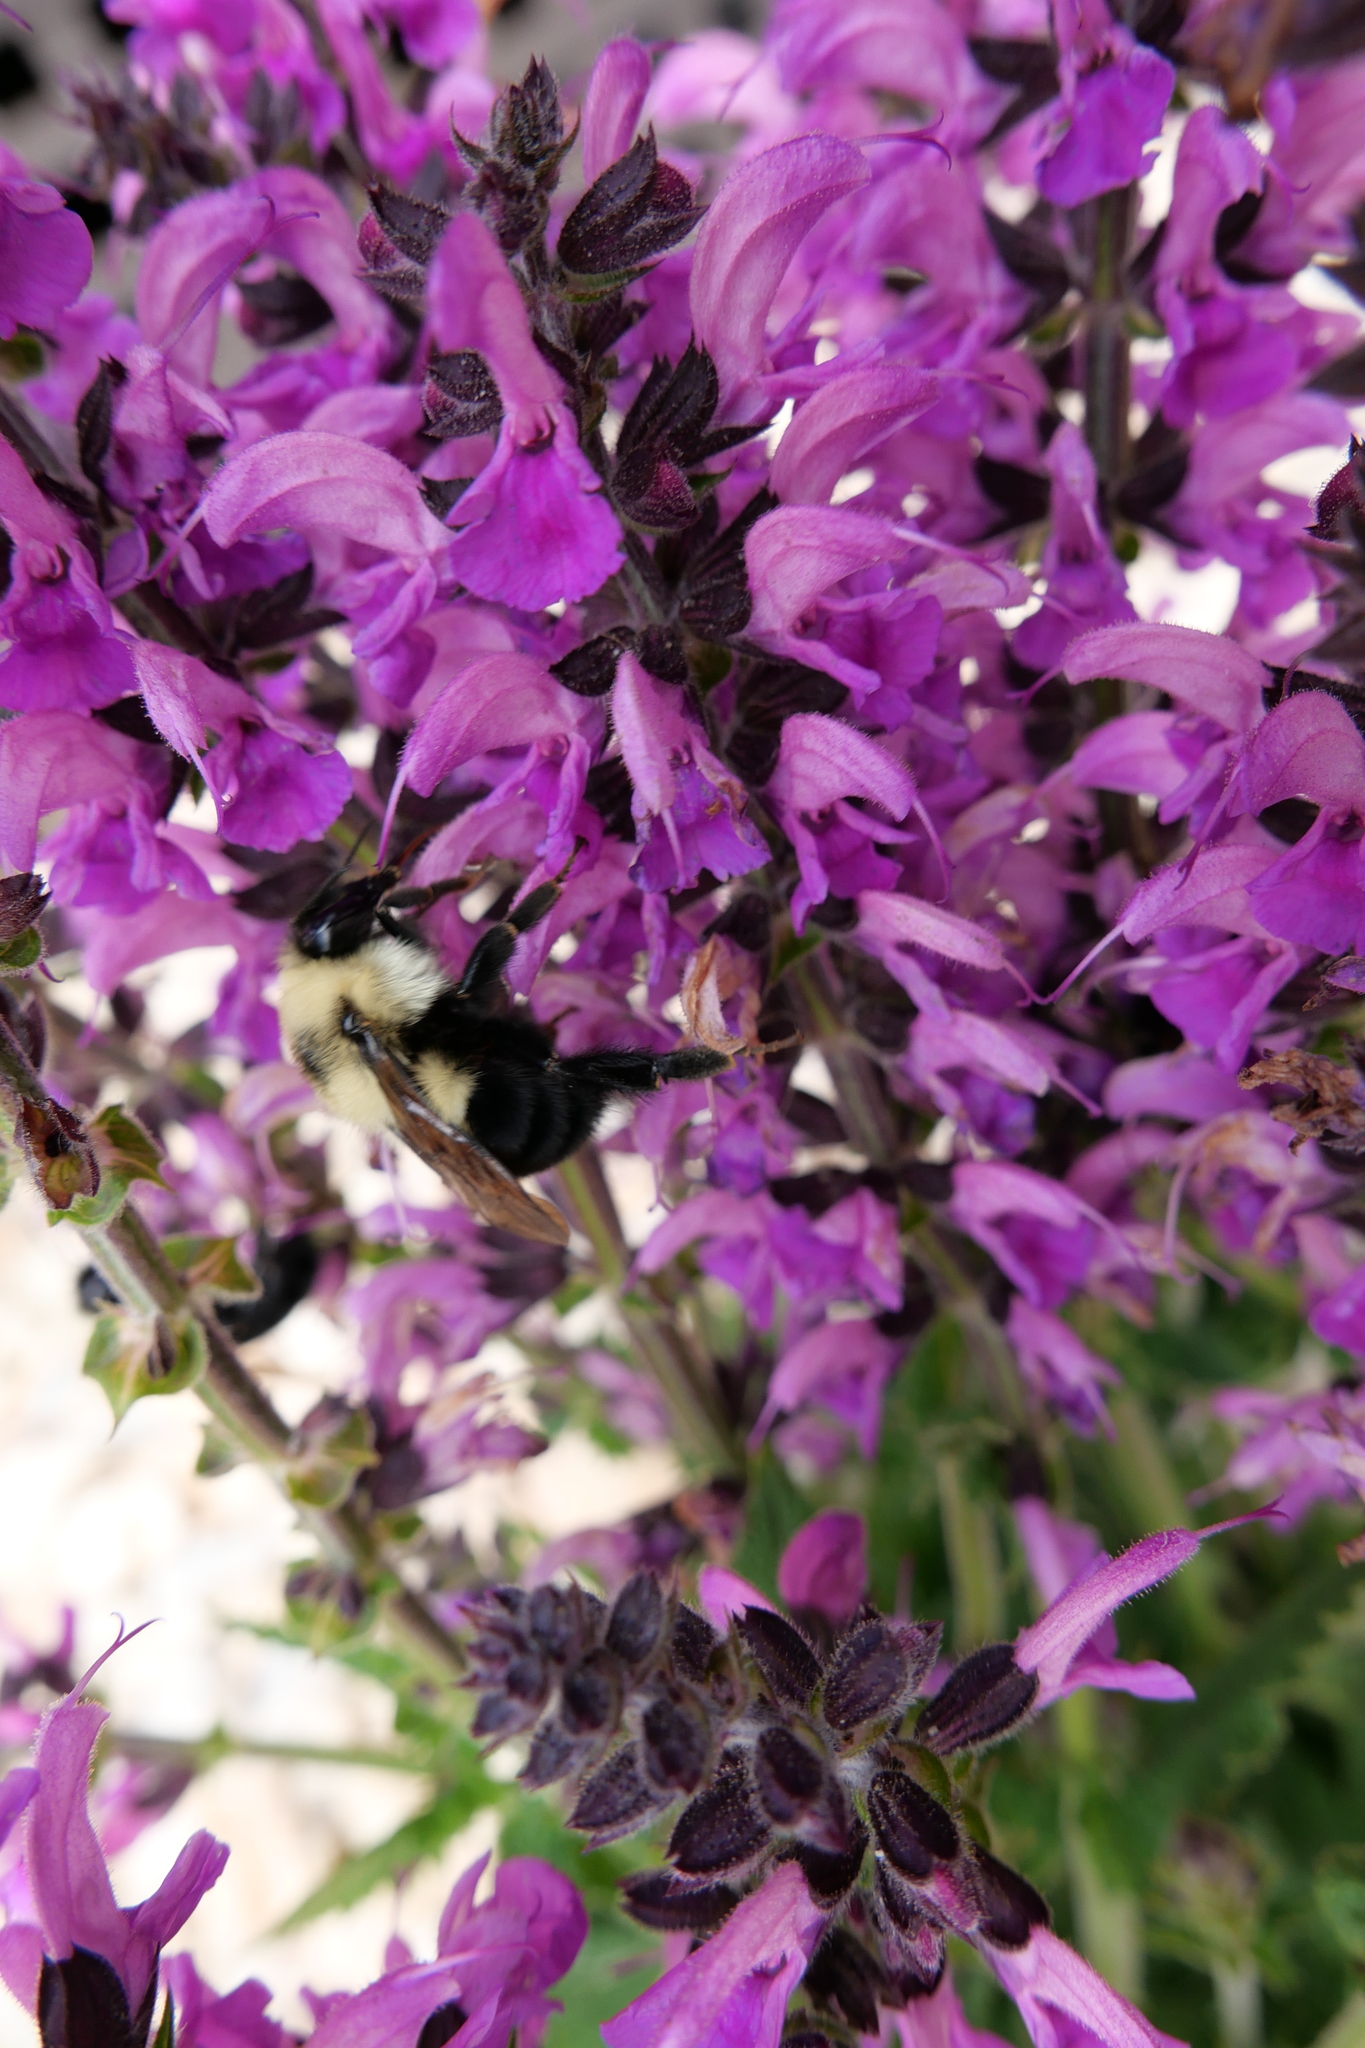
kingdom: Animalia
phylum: Arthropoda
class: Insecta
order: Hymenoptera
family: Apidae
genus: Bombus
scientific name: Bombus bimaculatus
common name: Two-spotted bumble bee
